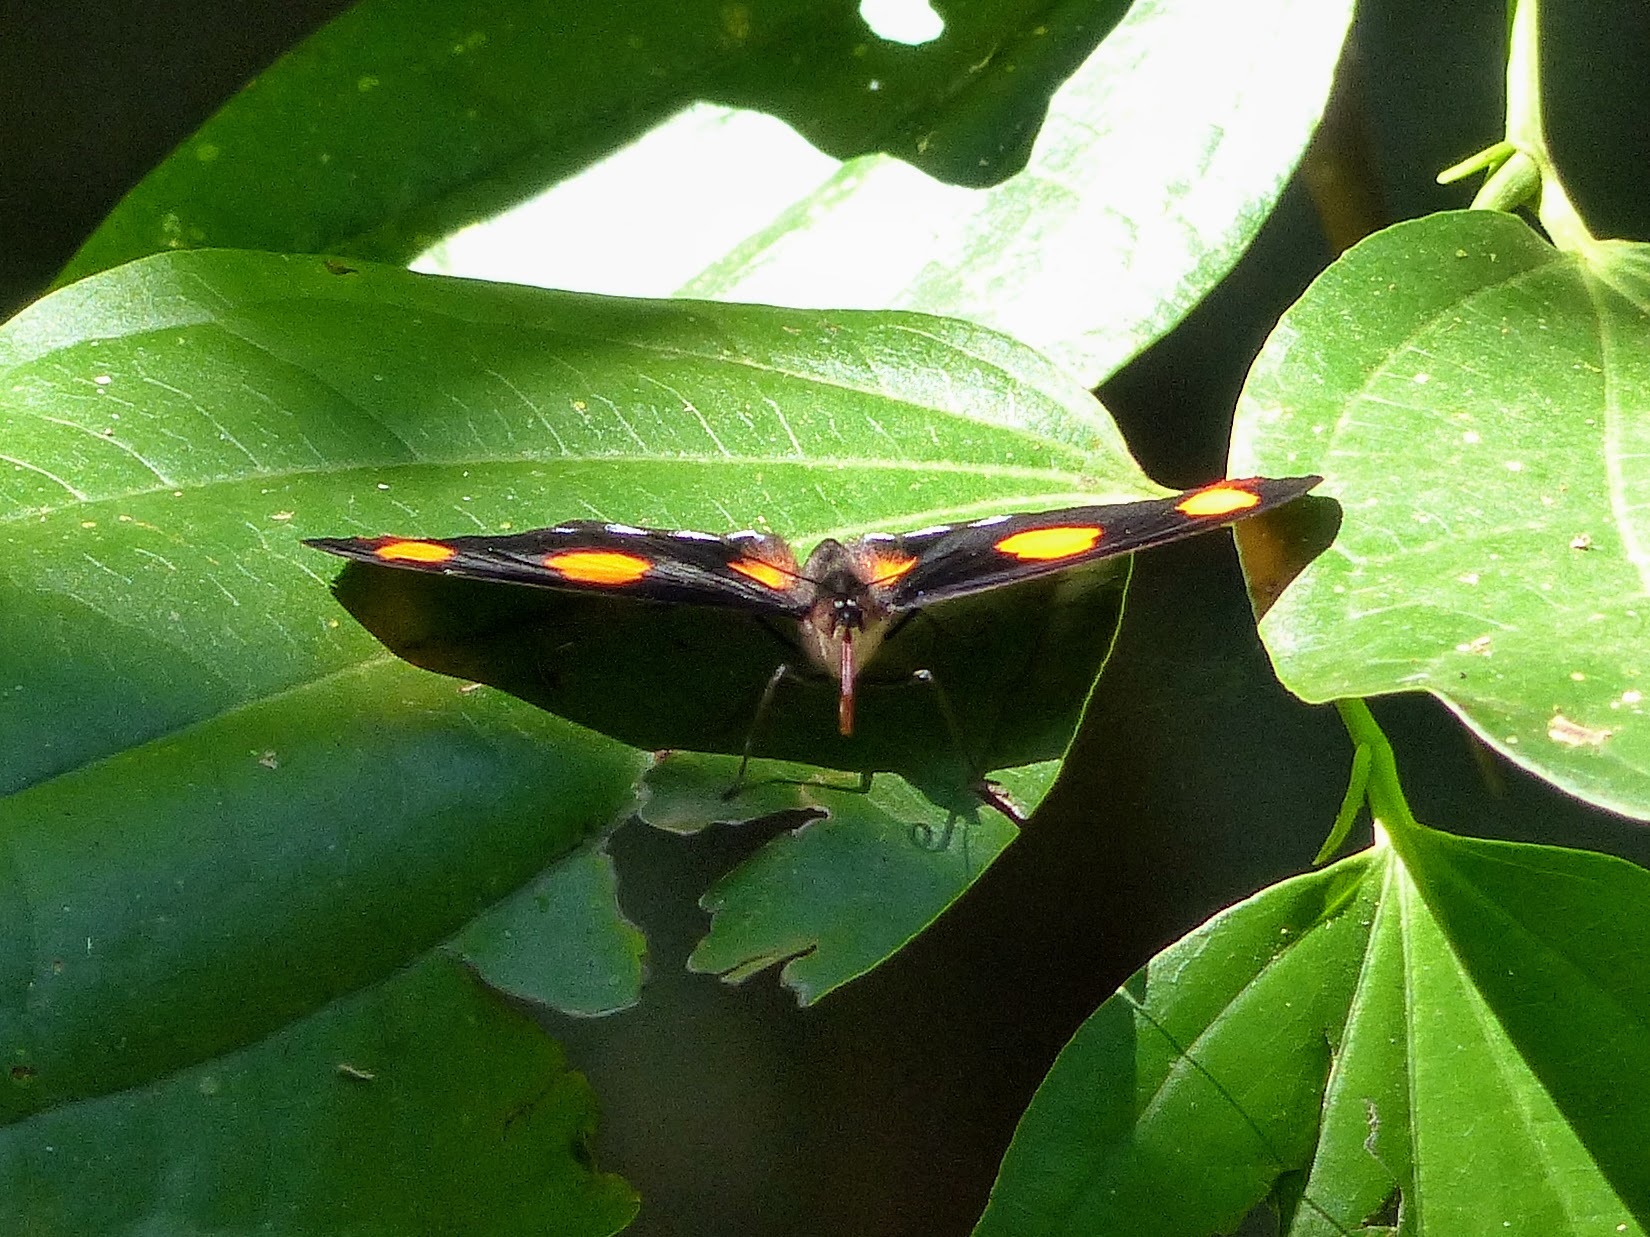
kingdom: Animalia
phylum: Arthropoda
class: Insecta
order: Lepidoptera
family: Nymphalidae
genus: Catonephele
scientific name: Catonephele numilia
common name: Blue-frosted banner
